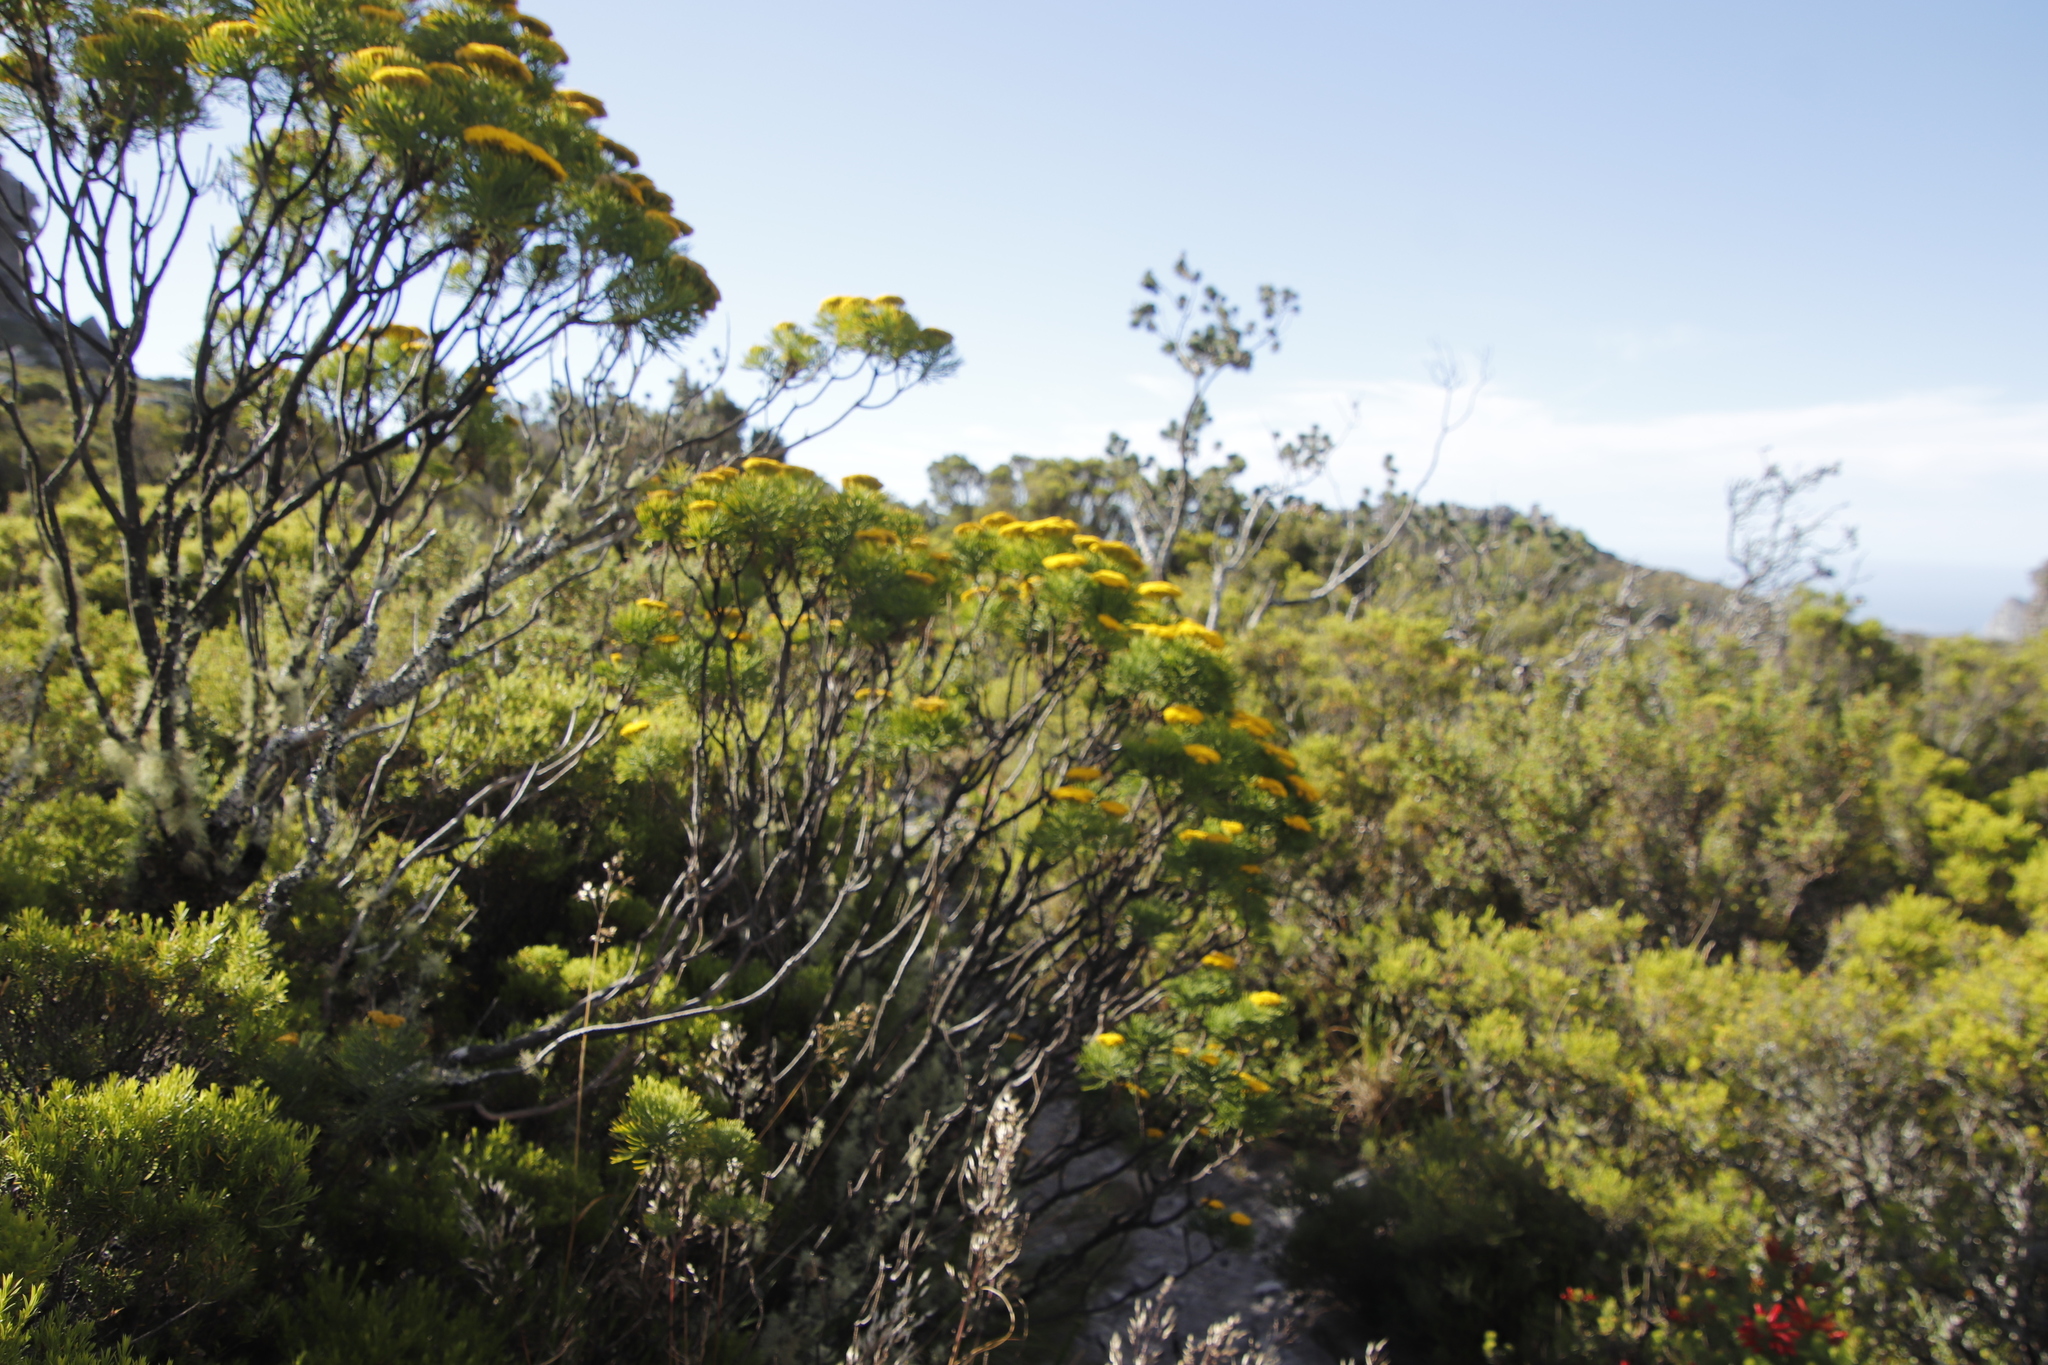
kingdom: Plantae
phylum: Tracheophyta
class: Magnoliopsida
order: Asterales
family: Asteraceae
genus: Hymenolepis
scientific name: Hymenolepis crithmifolia
